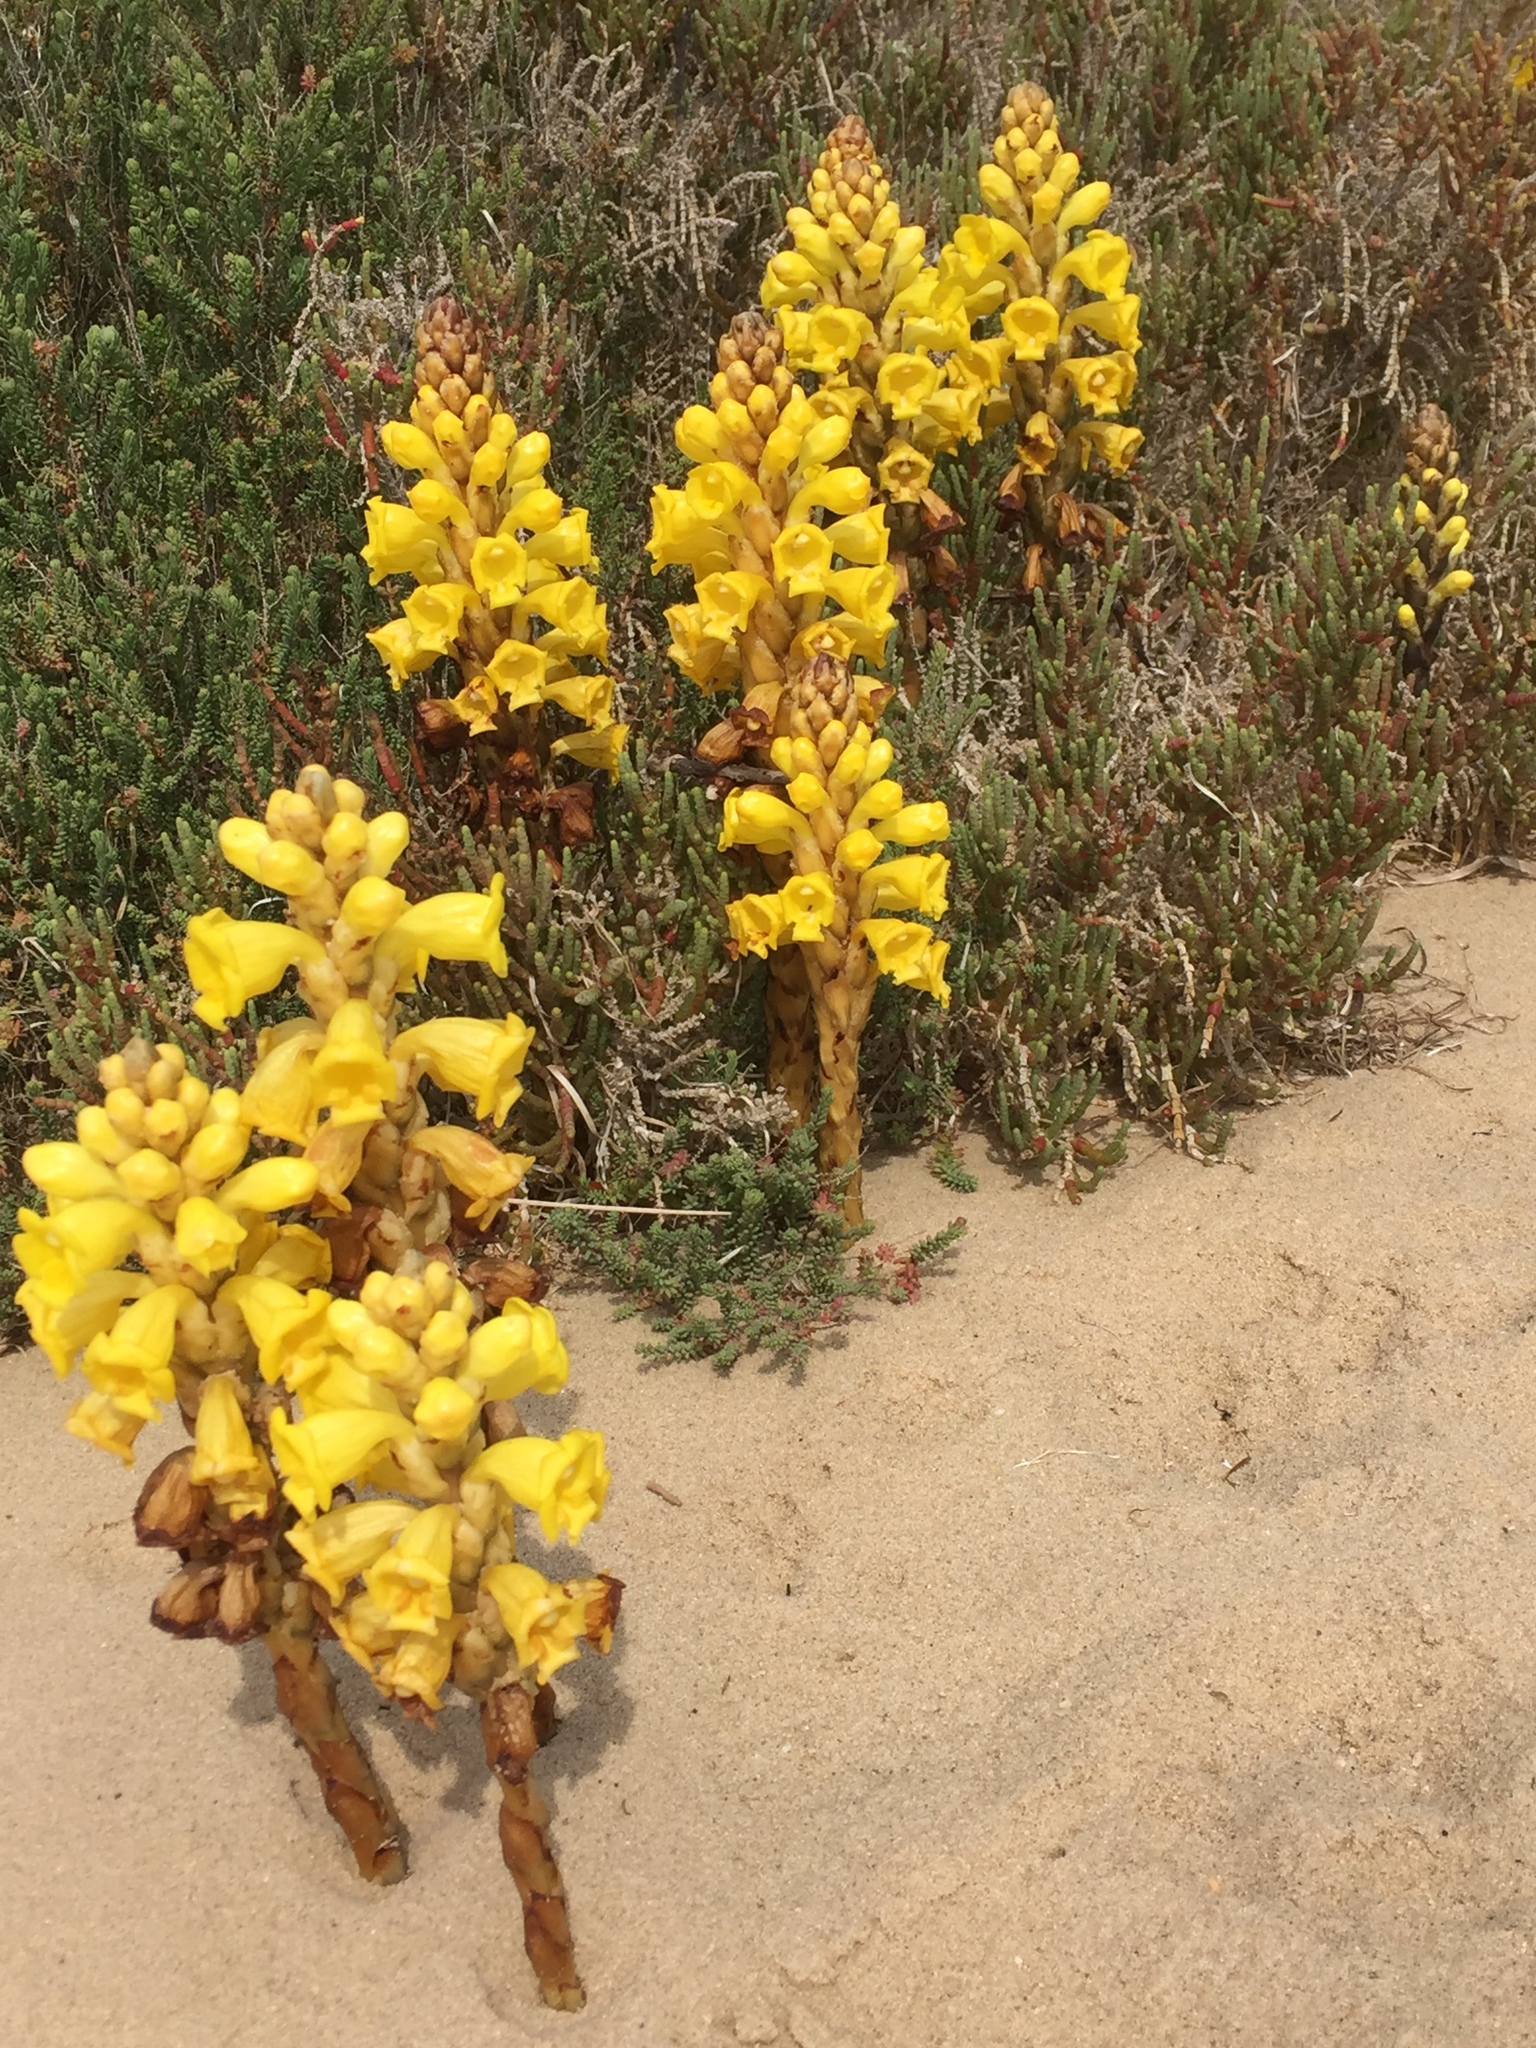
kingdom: Plantae
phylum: Tracheophyta
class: Magnoliopsida
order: Lamiales
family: Orobanchaceae
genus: Cistanche
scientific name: Cistanche phelypaea
